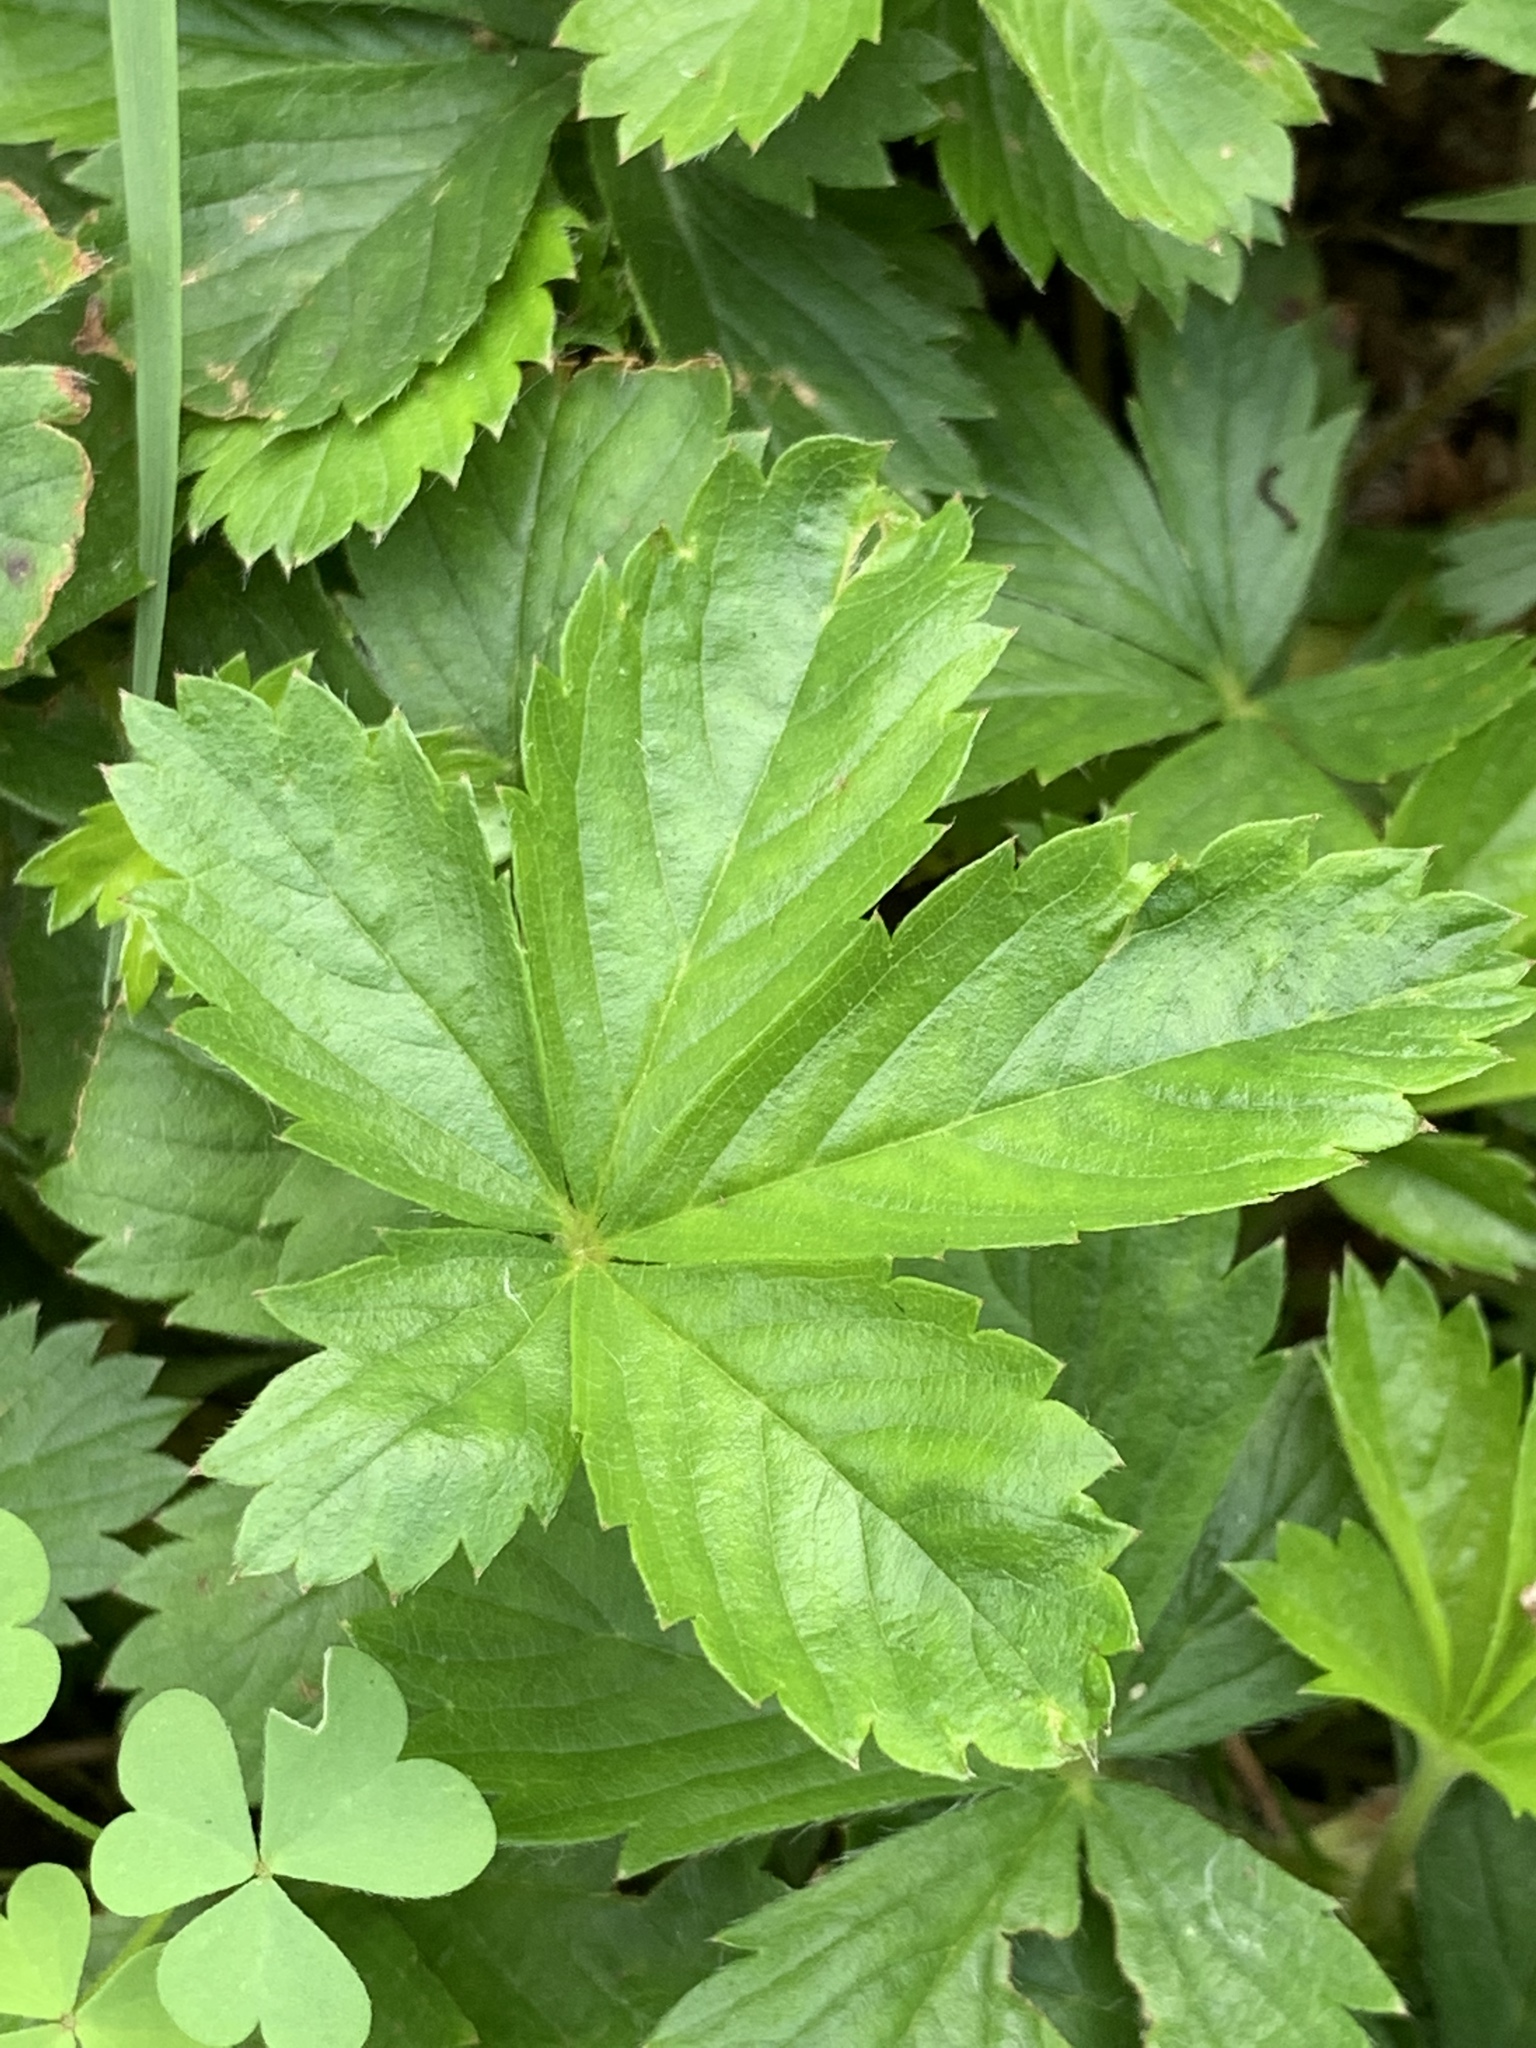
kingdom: Plantae
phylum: Tracheophyta
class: Magnoliopsida
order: Rosales
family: Rosaceae
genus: Potentilla
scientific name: Potentilla canadensis
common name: Canada cinquefoil
